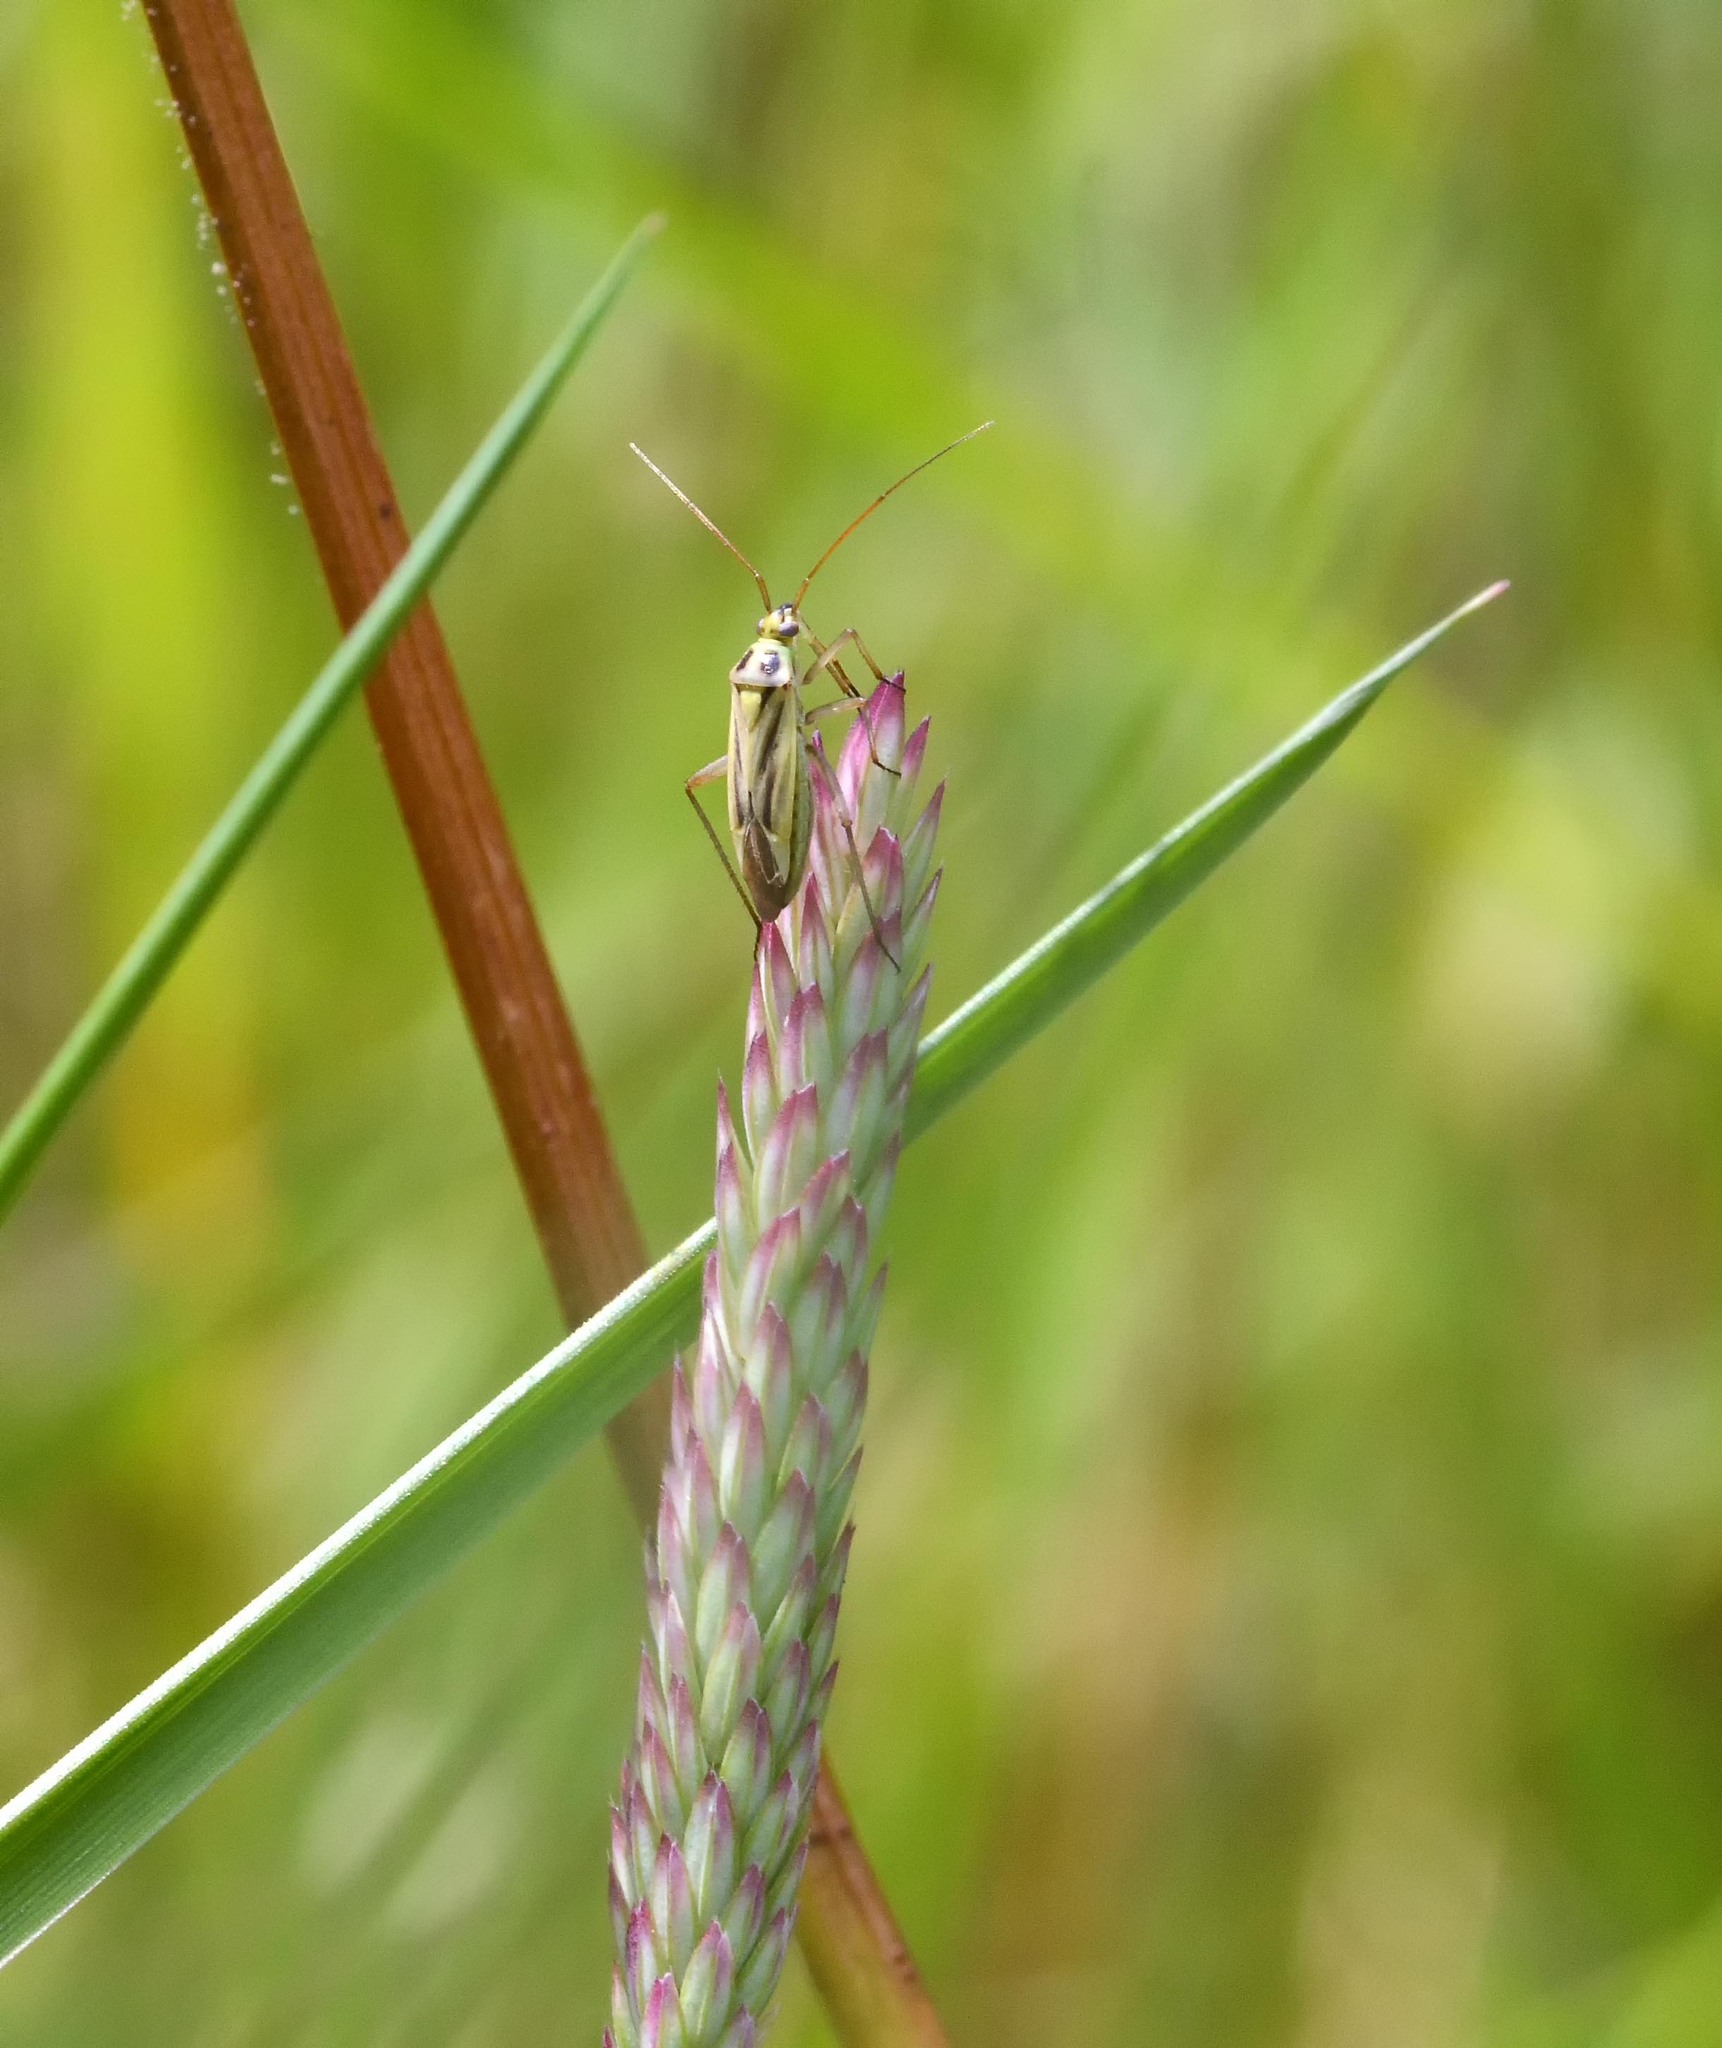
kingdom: Animalia
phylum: Arthropoda
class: Insecta
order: Hemiptera
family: Miridae
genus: Stenotus
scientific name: Stenotus binotatus
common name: Plant bug
